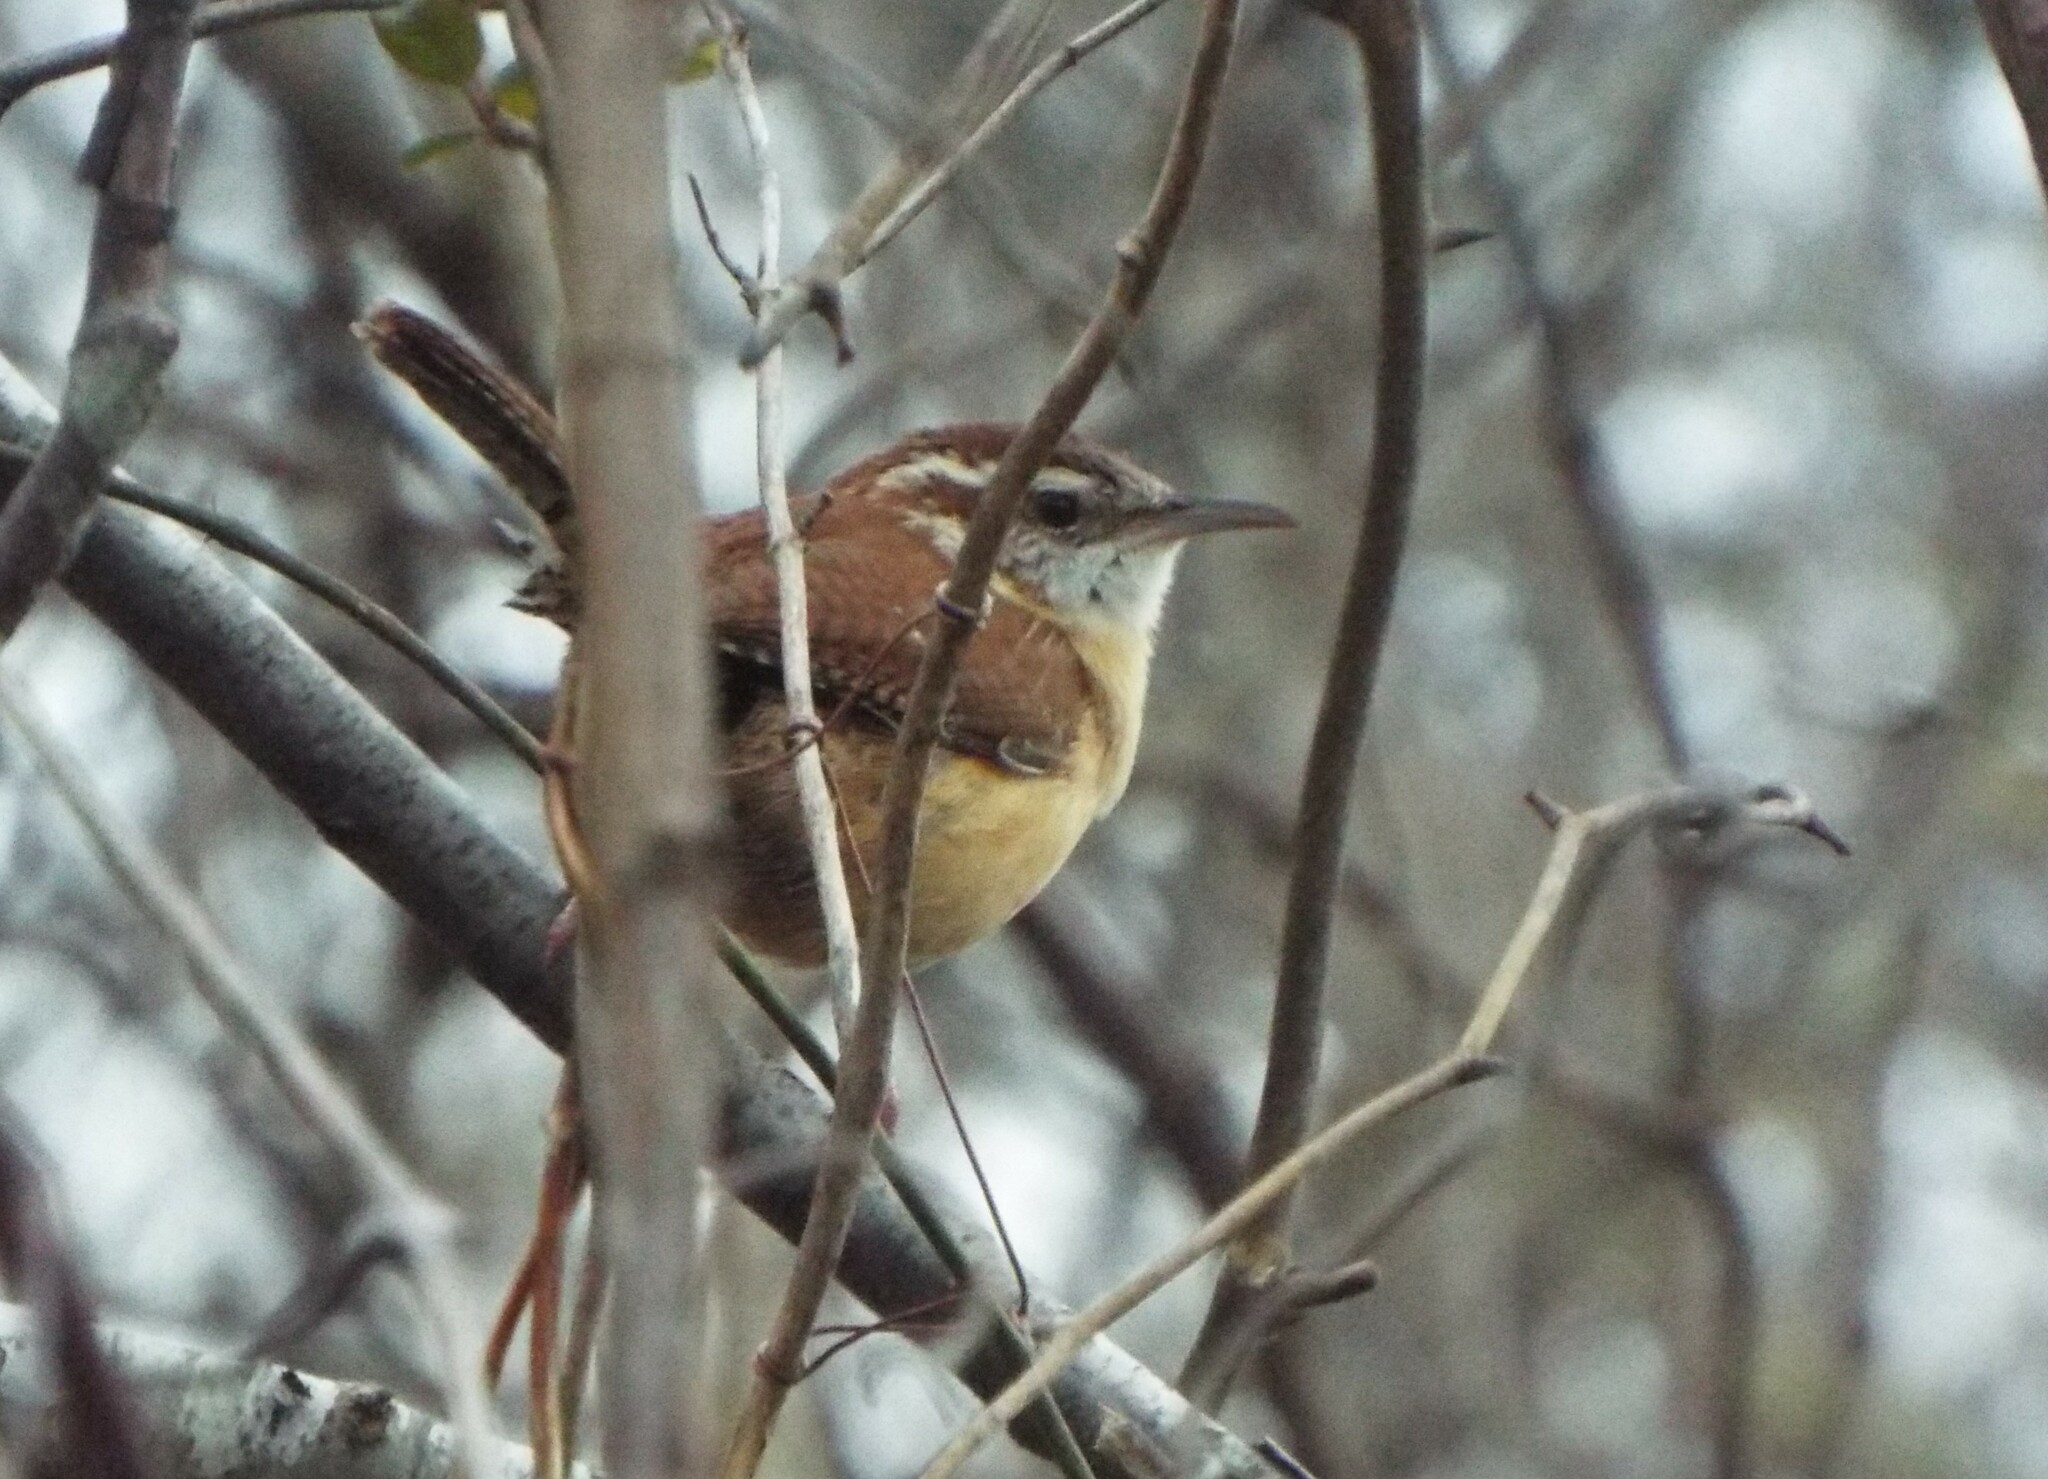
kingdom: Animalia
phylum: Chordata
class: Aves
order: Passeriformes
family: Troglodytidae
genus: Thryothorus
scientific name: Thryothorus ludovicianus
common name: Carolina wren
